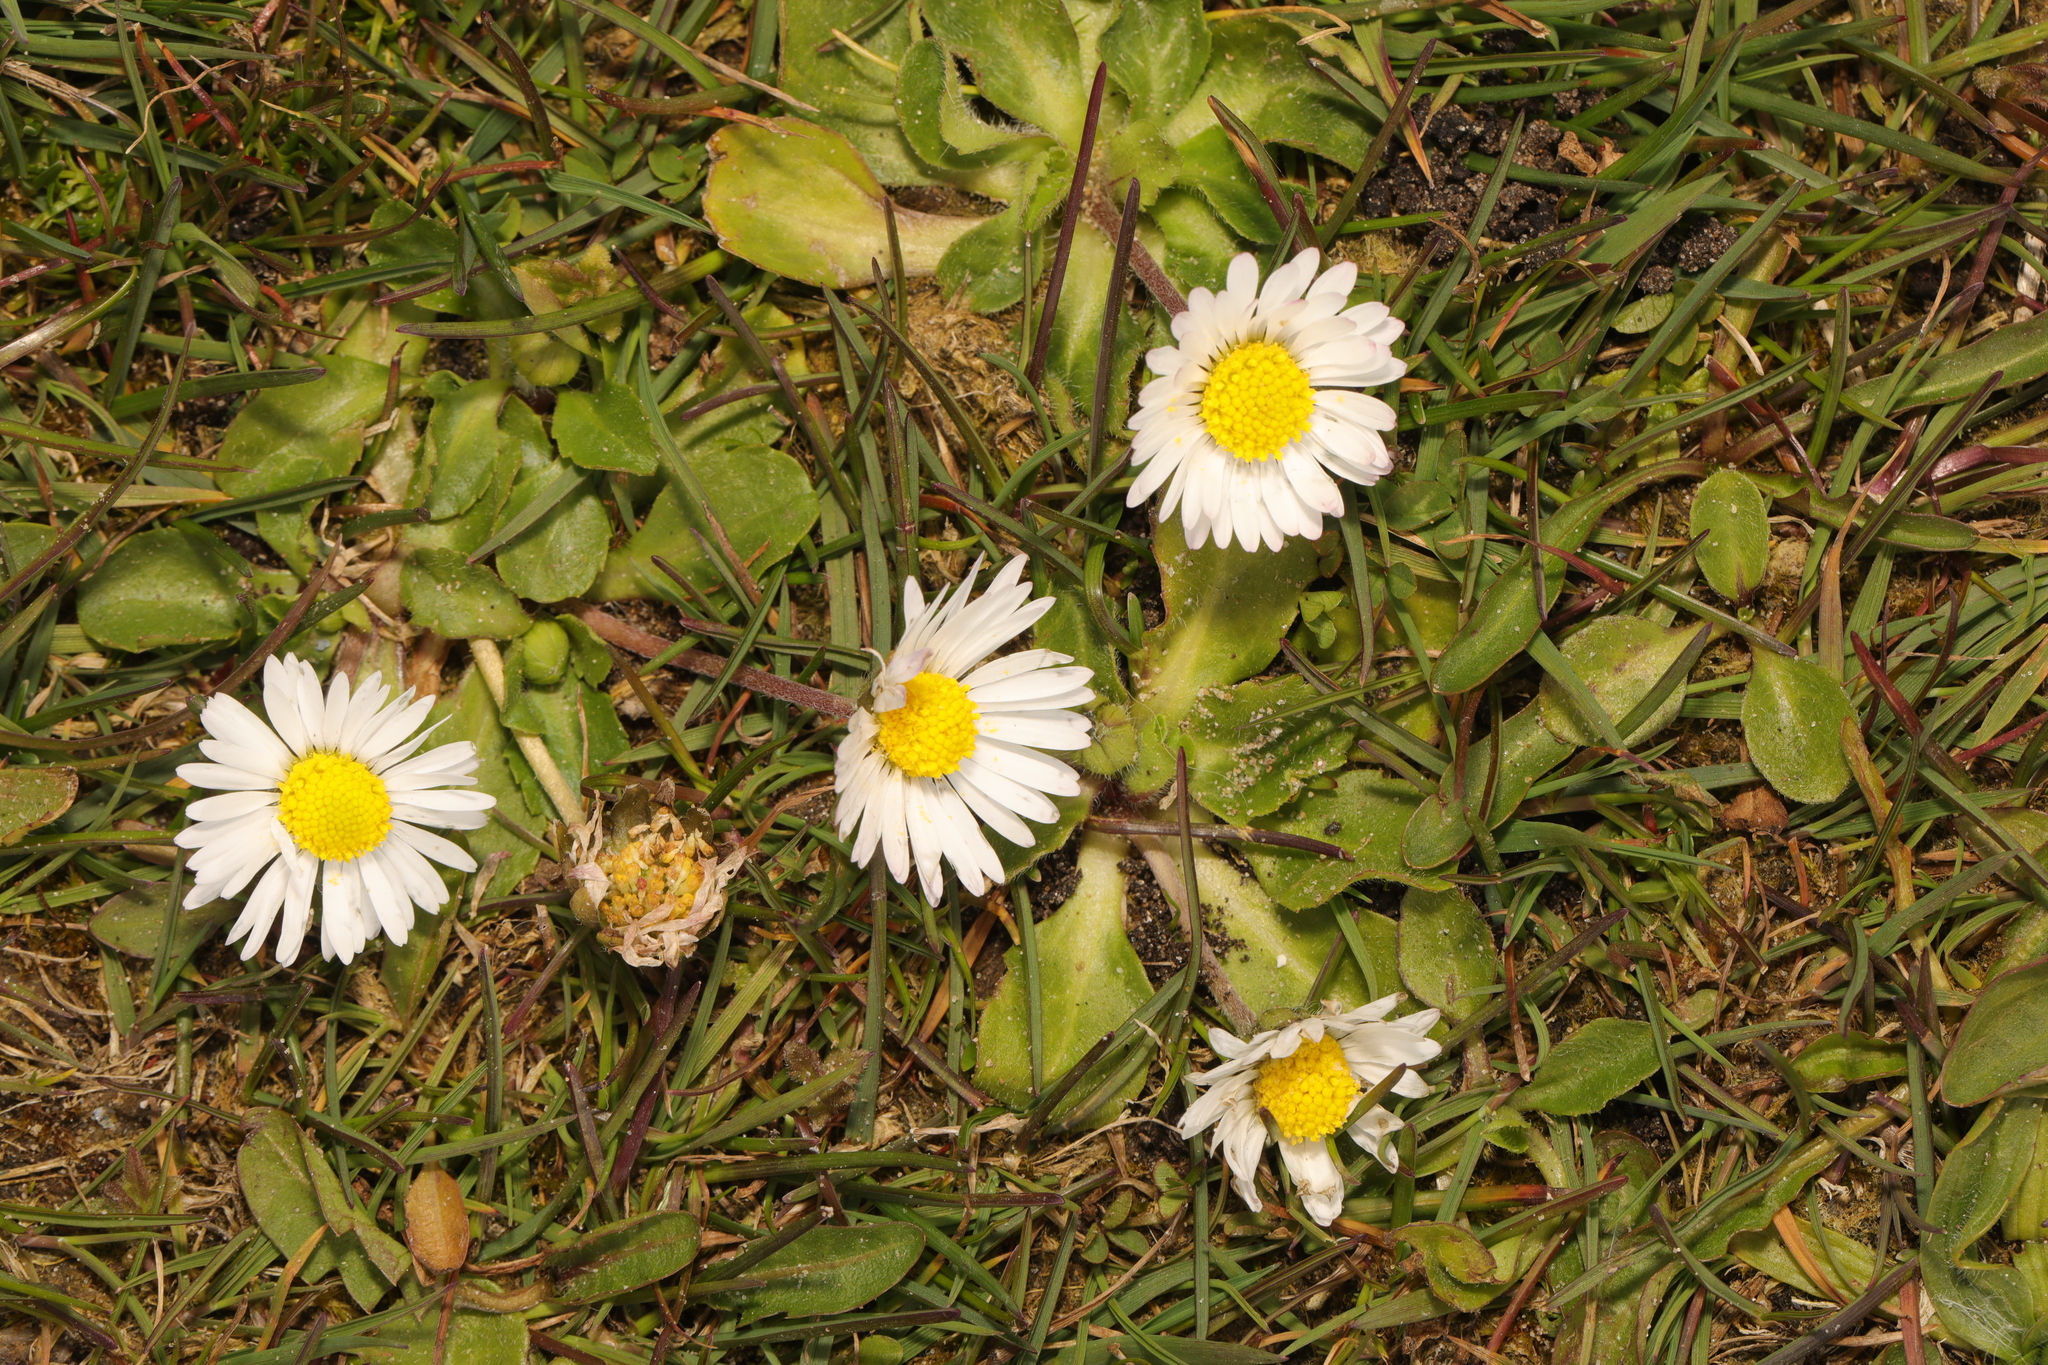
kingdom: Plantae
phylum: Tracheophyta
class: Magnoliopsida
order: Asterales
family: Asteraceae
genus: Bellis
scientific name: Bellis perennis
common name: Lawndaisy
